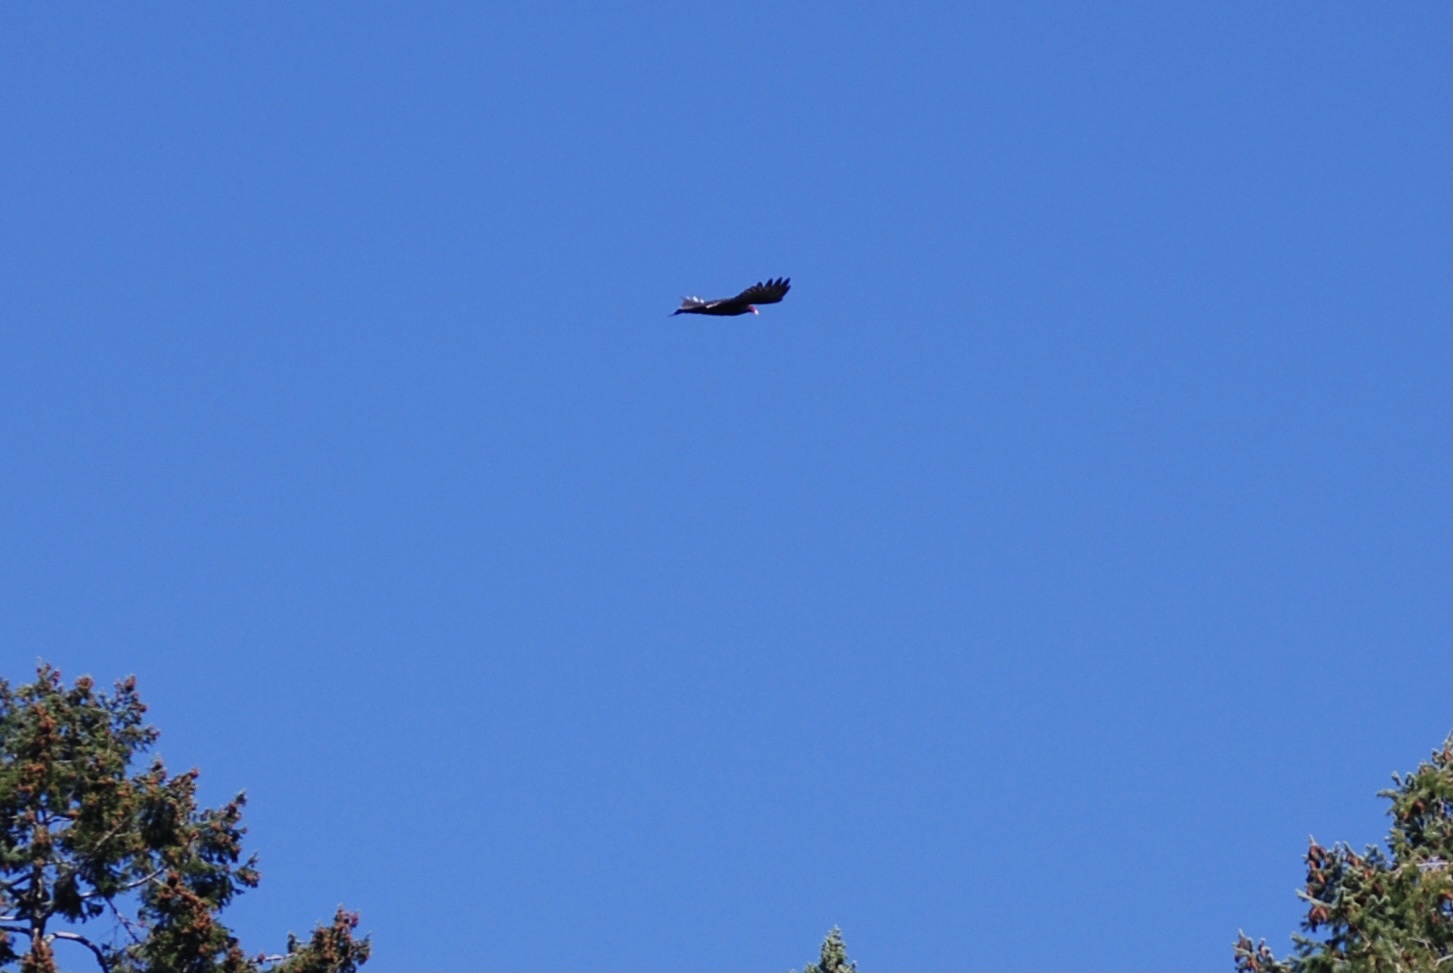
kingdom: Animalia
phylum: Chordata
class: Aves
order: Accipitriformes
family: Cathartidae
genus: Cathartes
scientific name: Cathartes aura
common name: Turkey vulture
